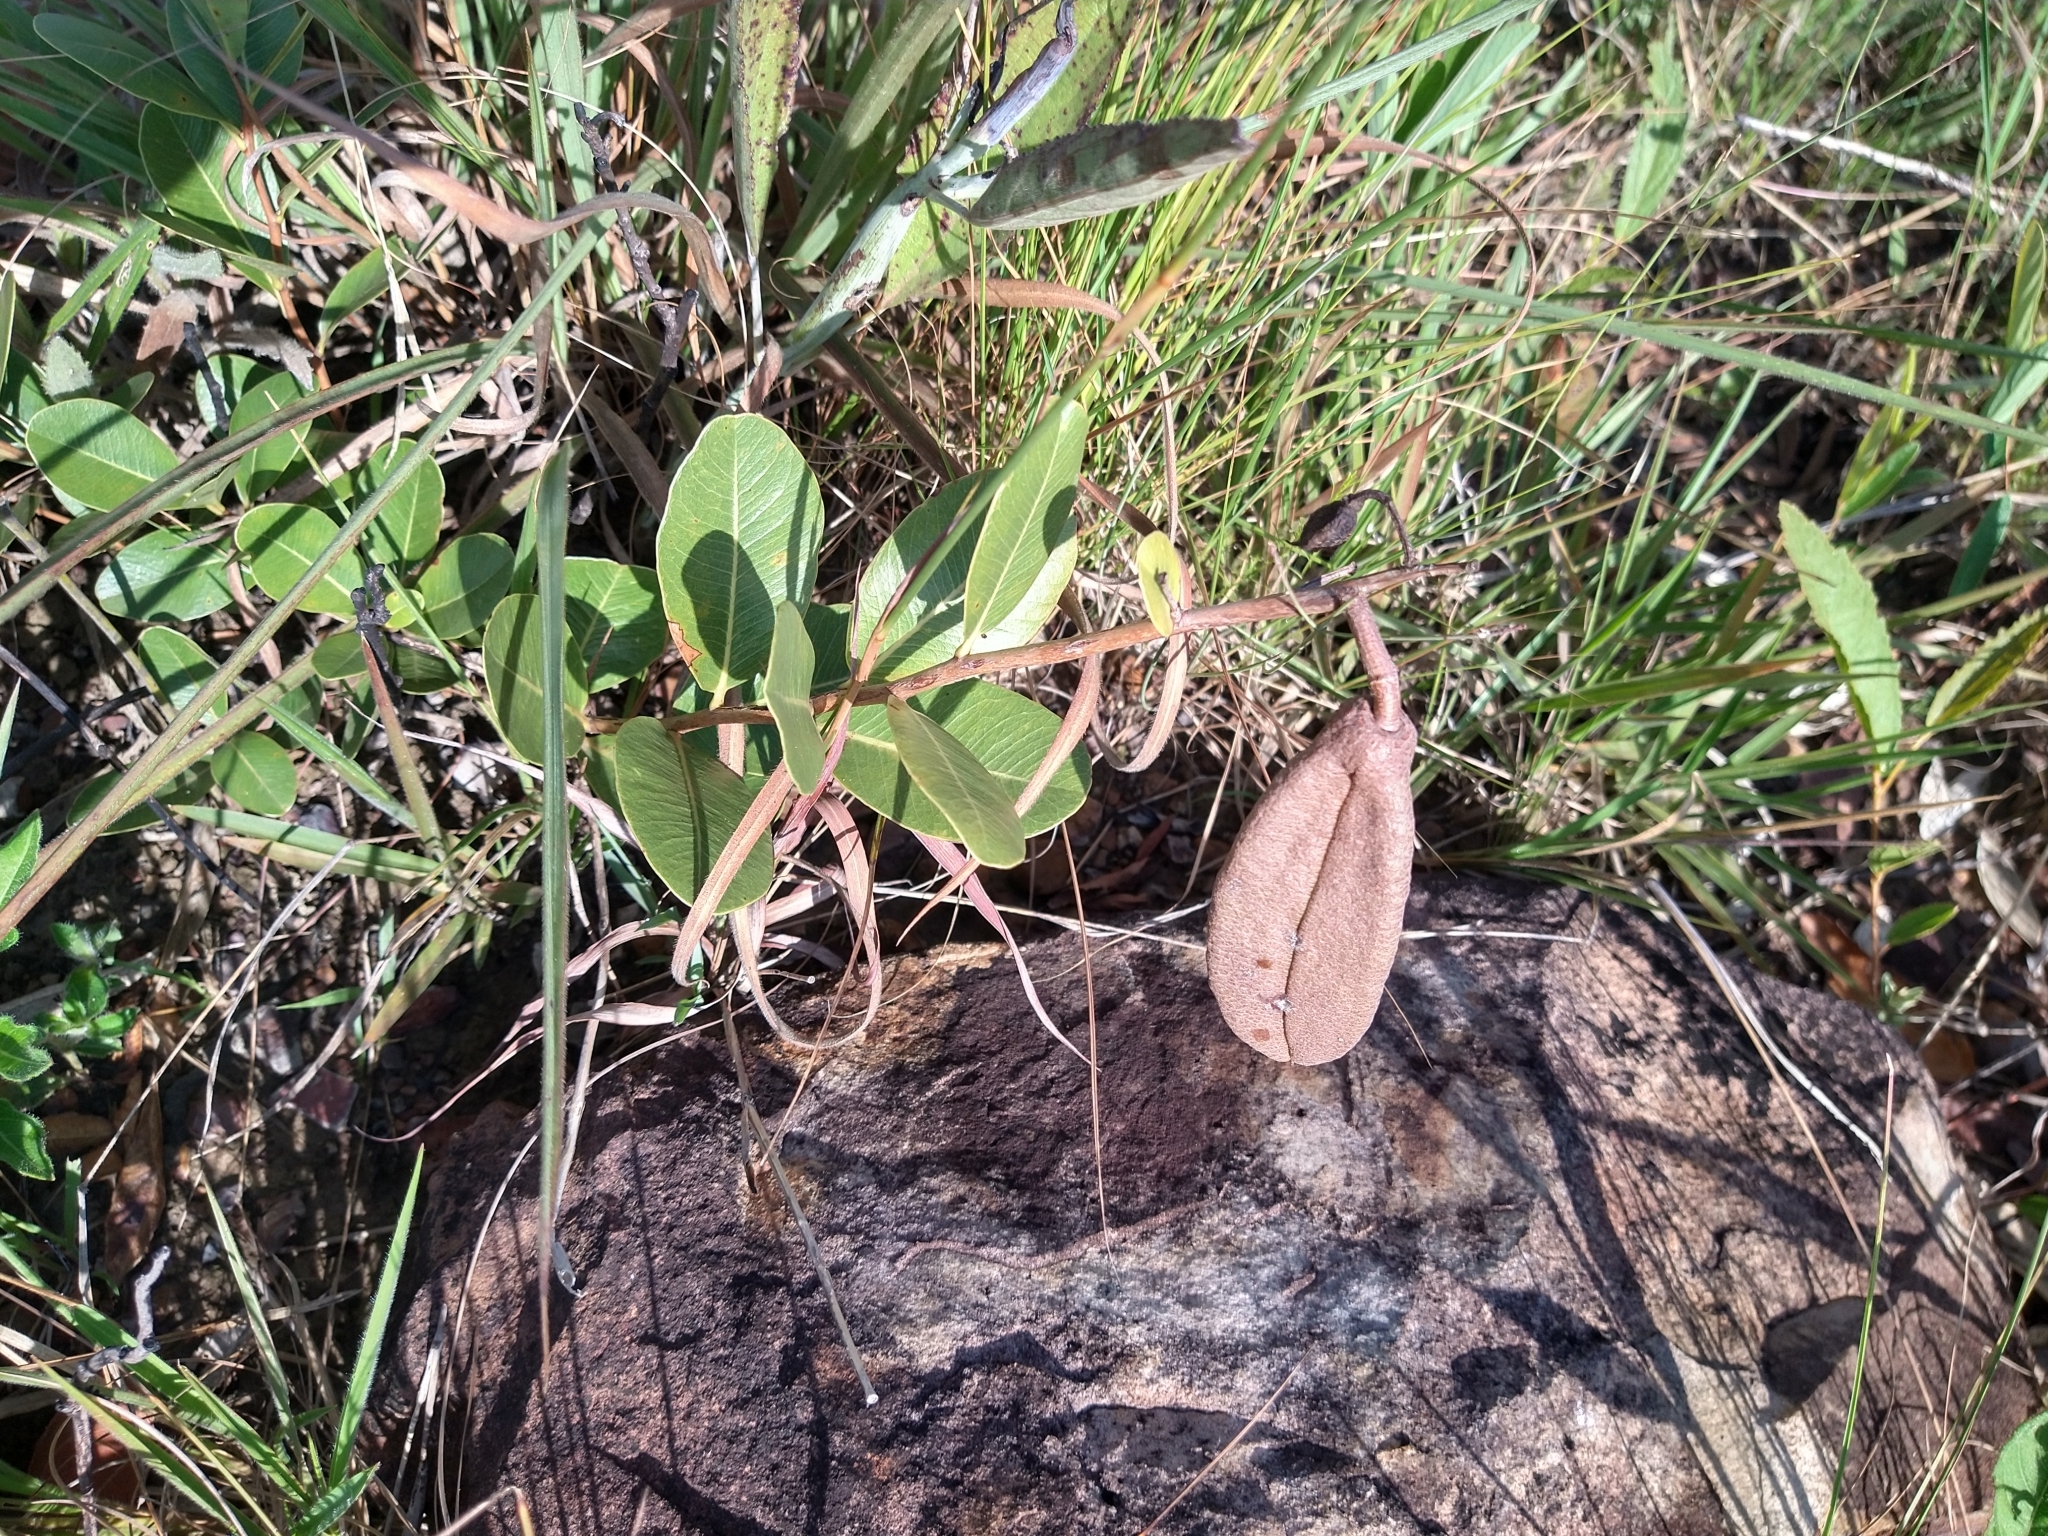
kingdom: Plantae
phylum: Tracheophyta
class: Magnoliopsida
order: Malpighiales
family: Calophyllaceae
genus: Kielmeyera
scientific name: Kielmeyera variabilis
